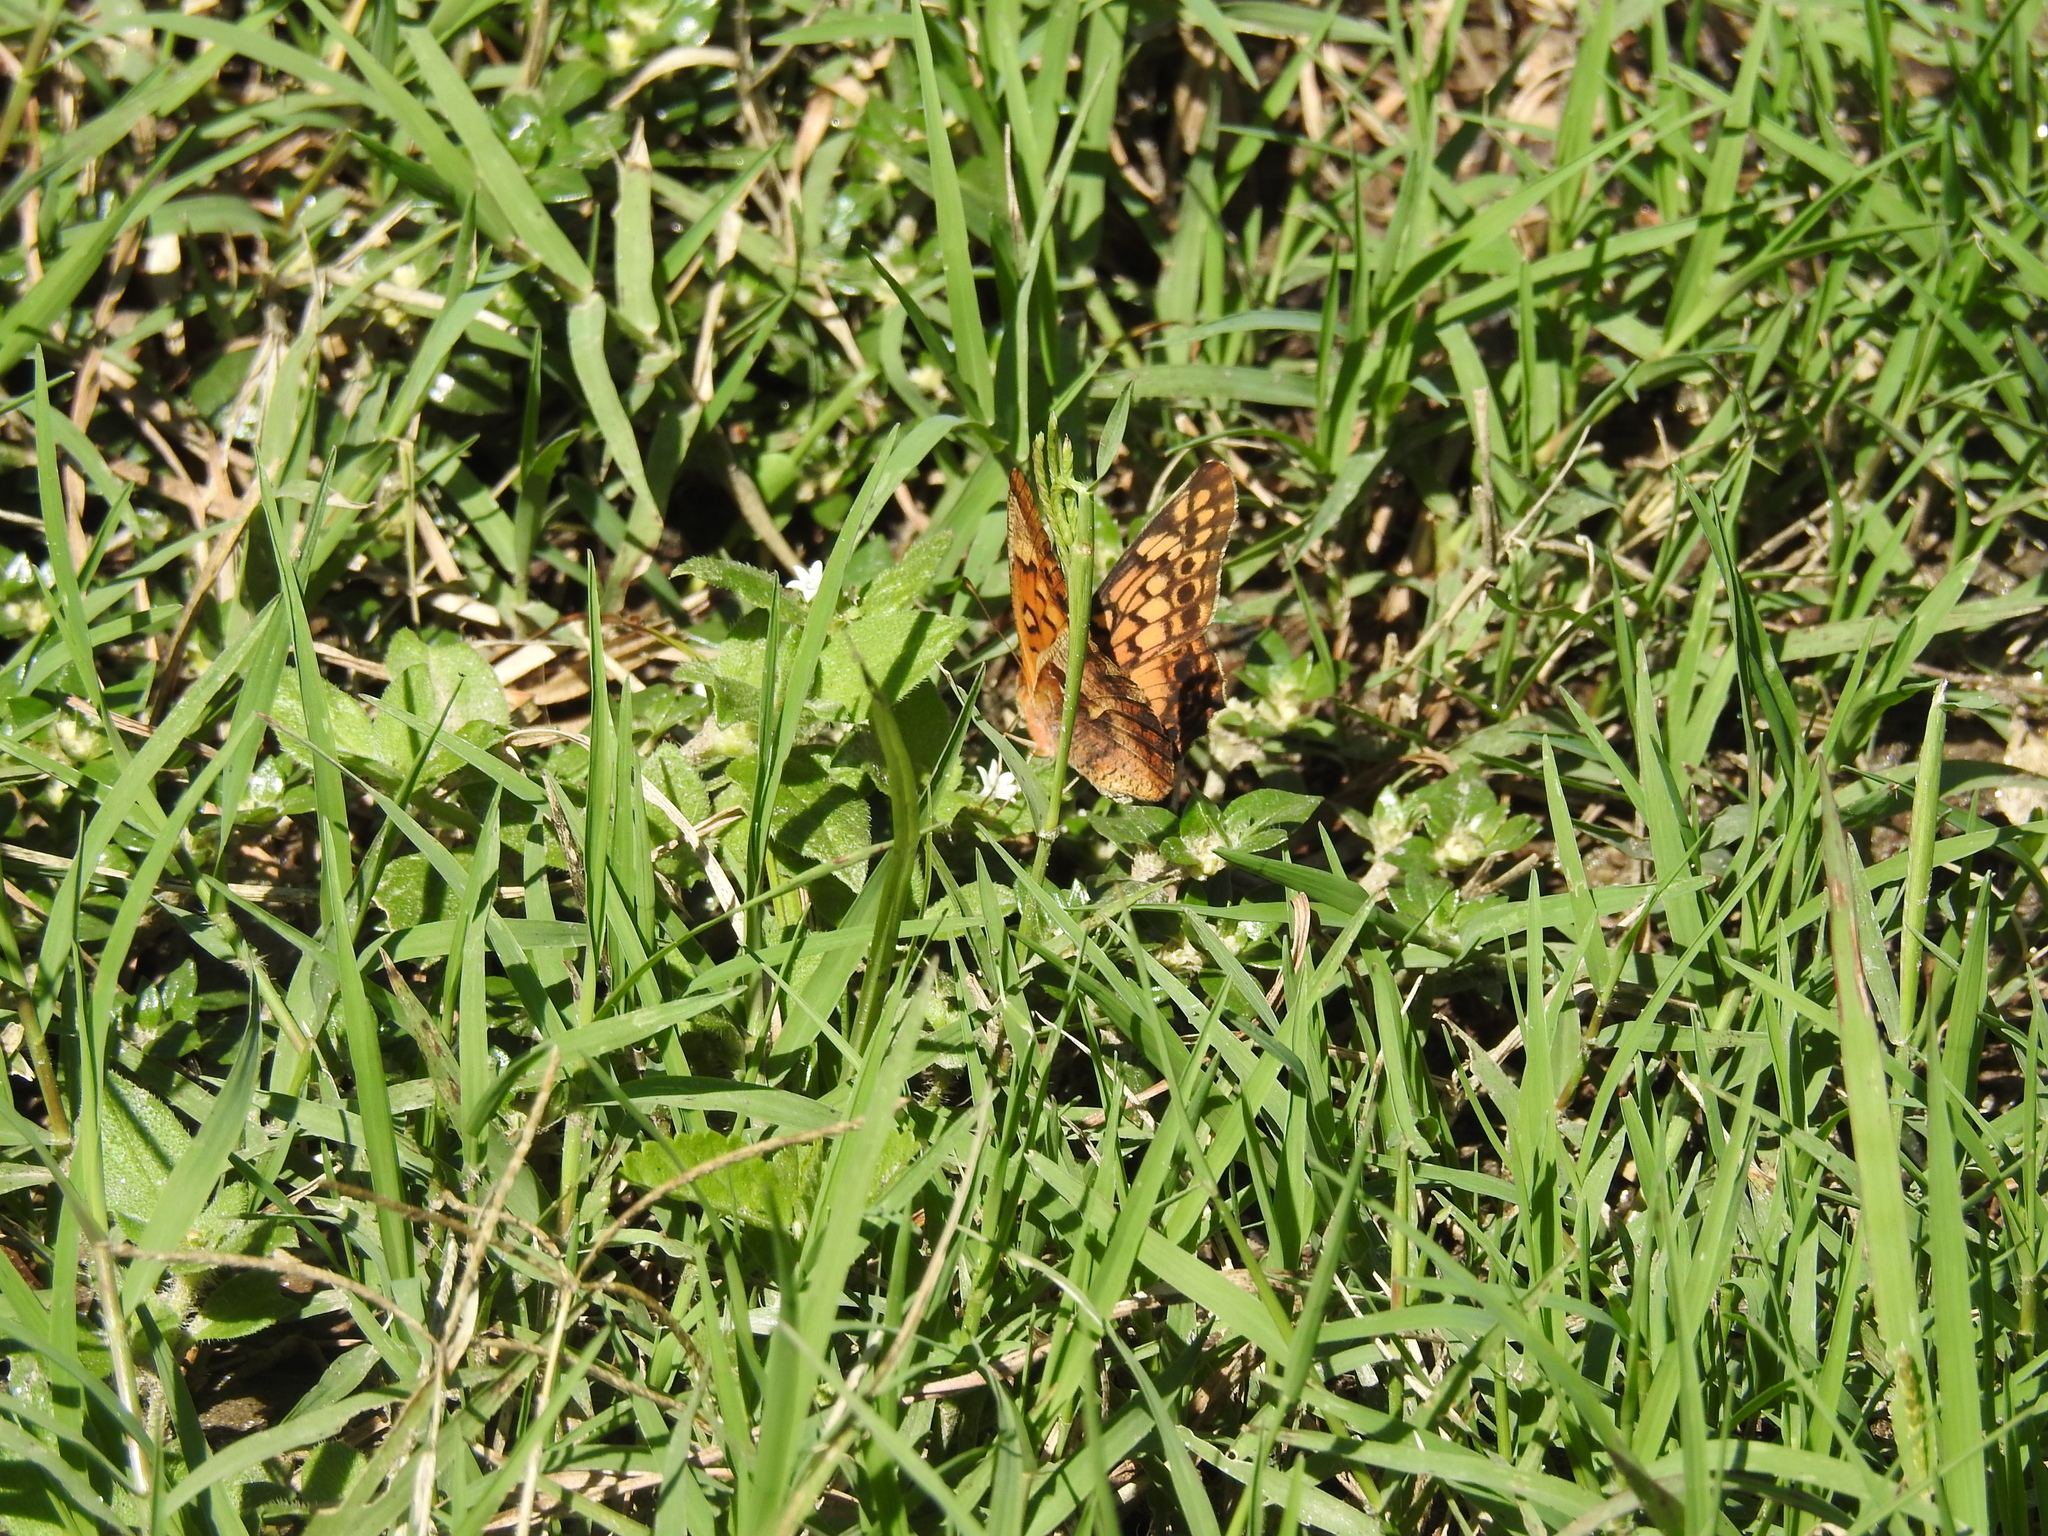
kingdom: Animalia
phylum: Arthropoda
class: Insecta
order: Lepidoptera
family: Nymphalidae
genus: Euptoieta
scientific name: Euptoieta hortensia
